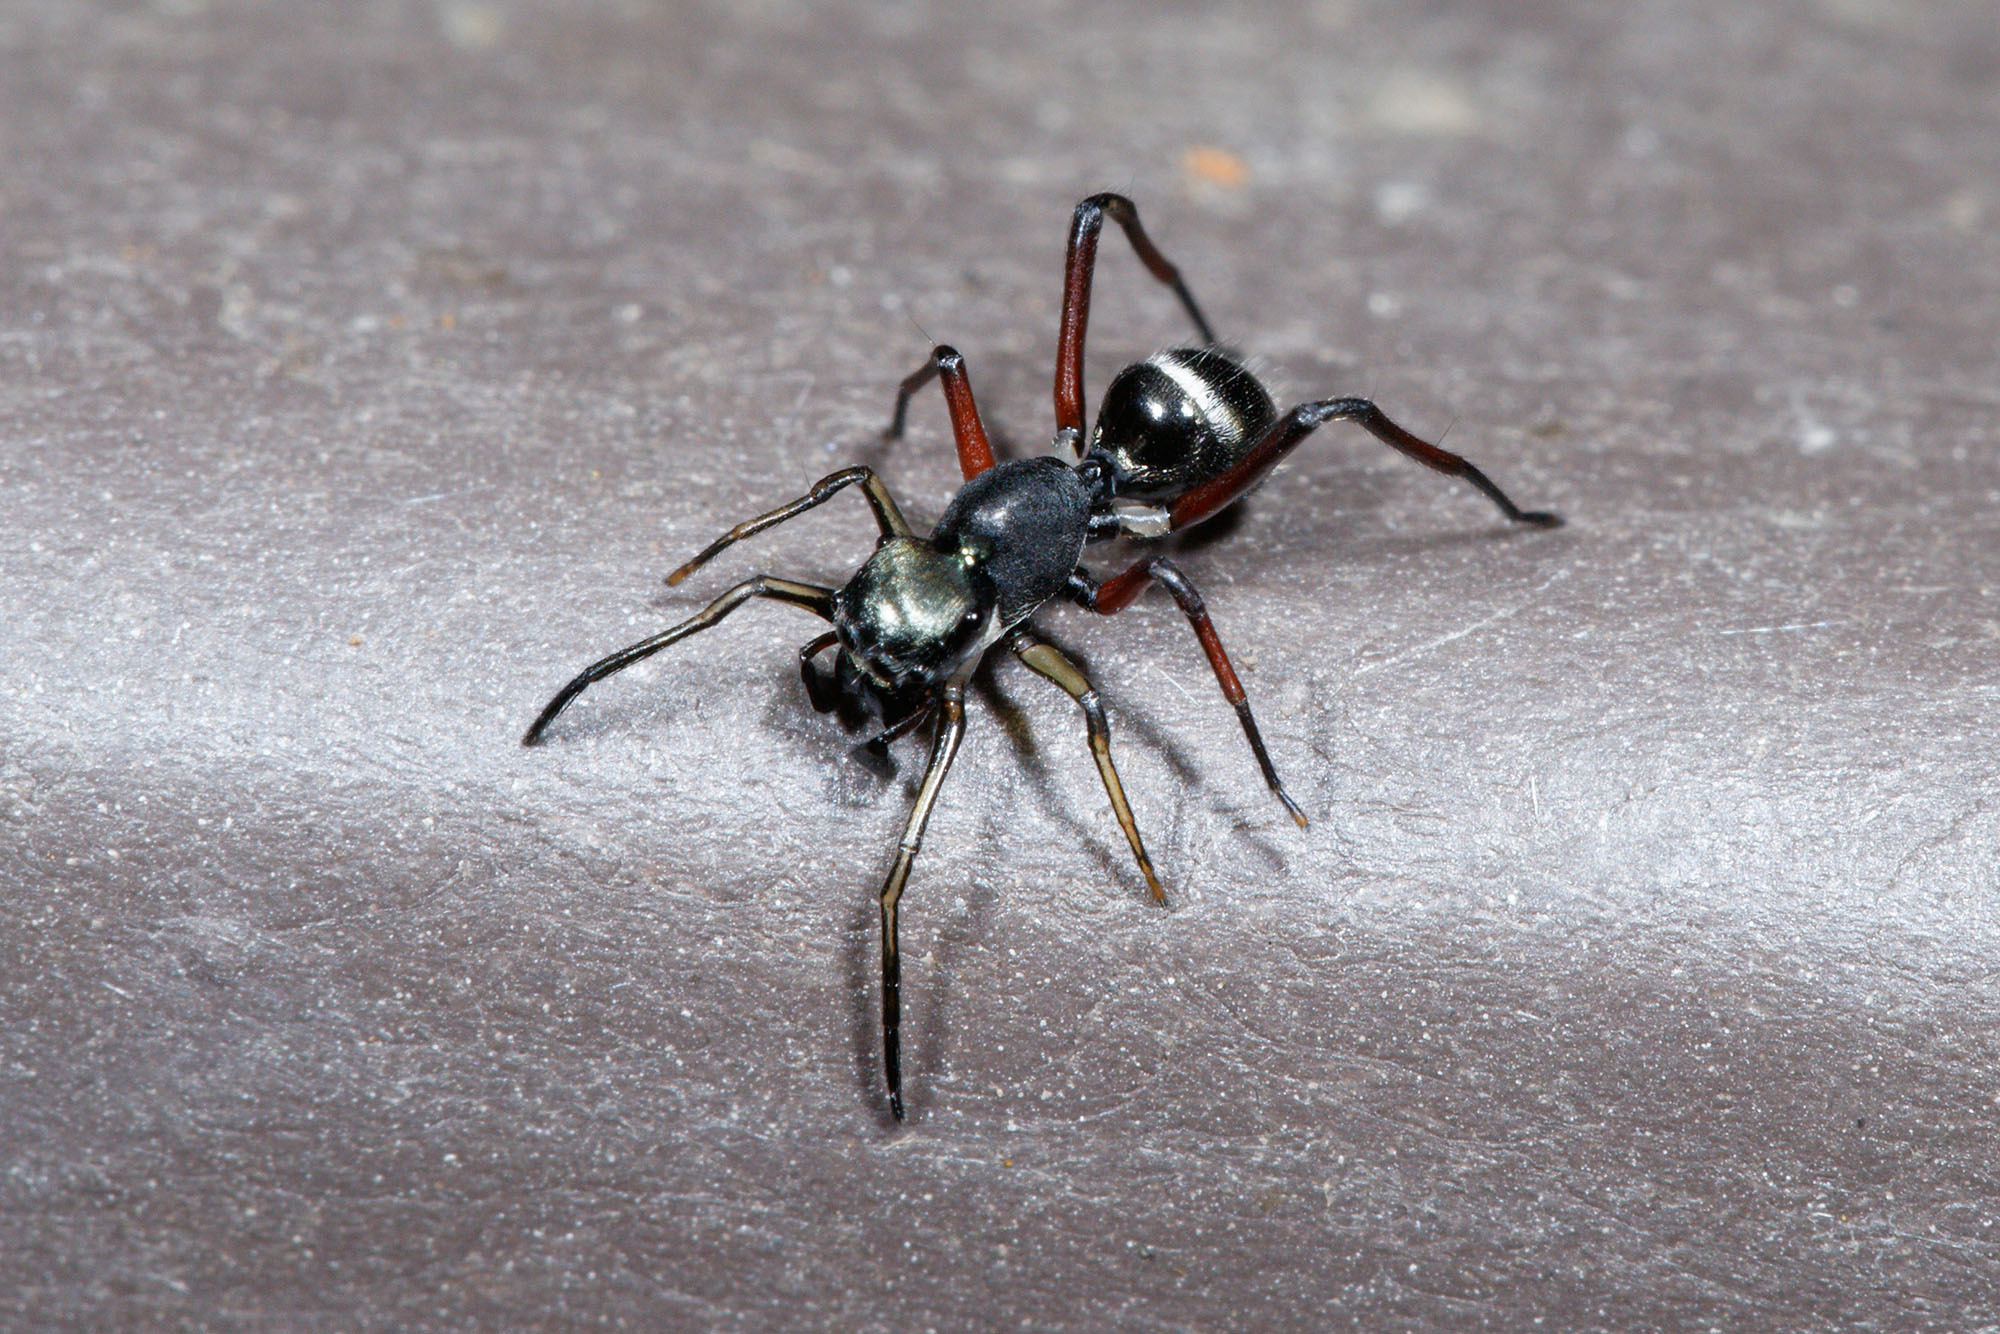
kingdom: Animalia
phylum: Arthropoda
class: Arachnida
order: Araneae
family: Salticidae
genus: Myrmarachne
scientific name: Myrmarachne macleayana
